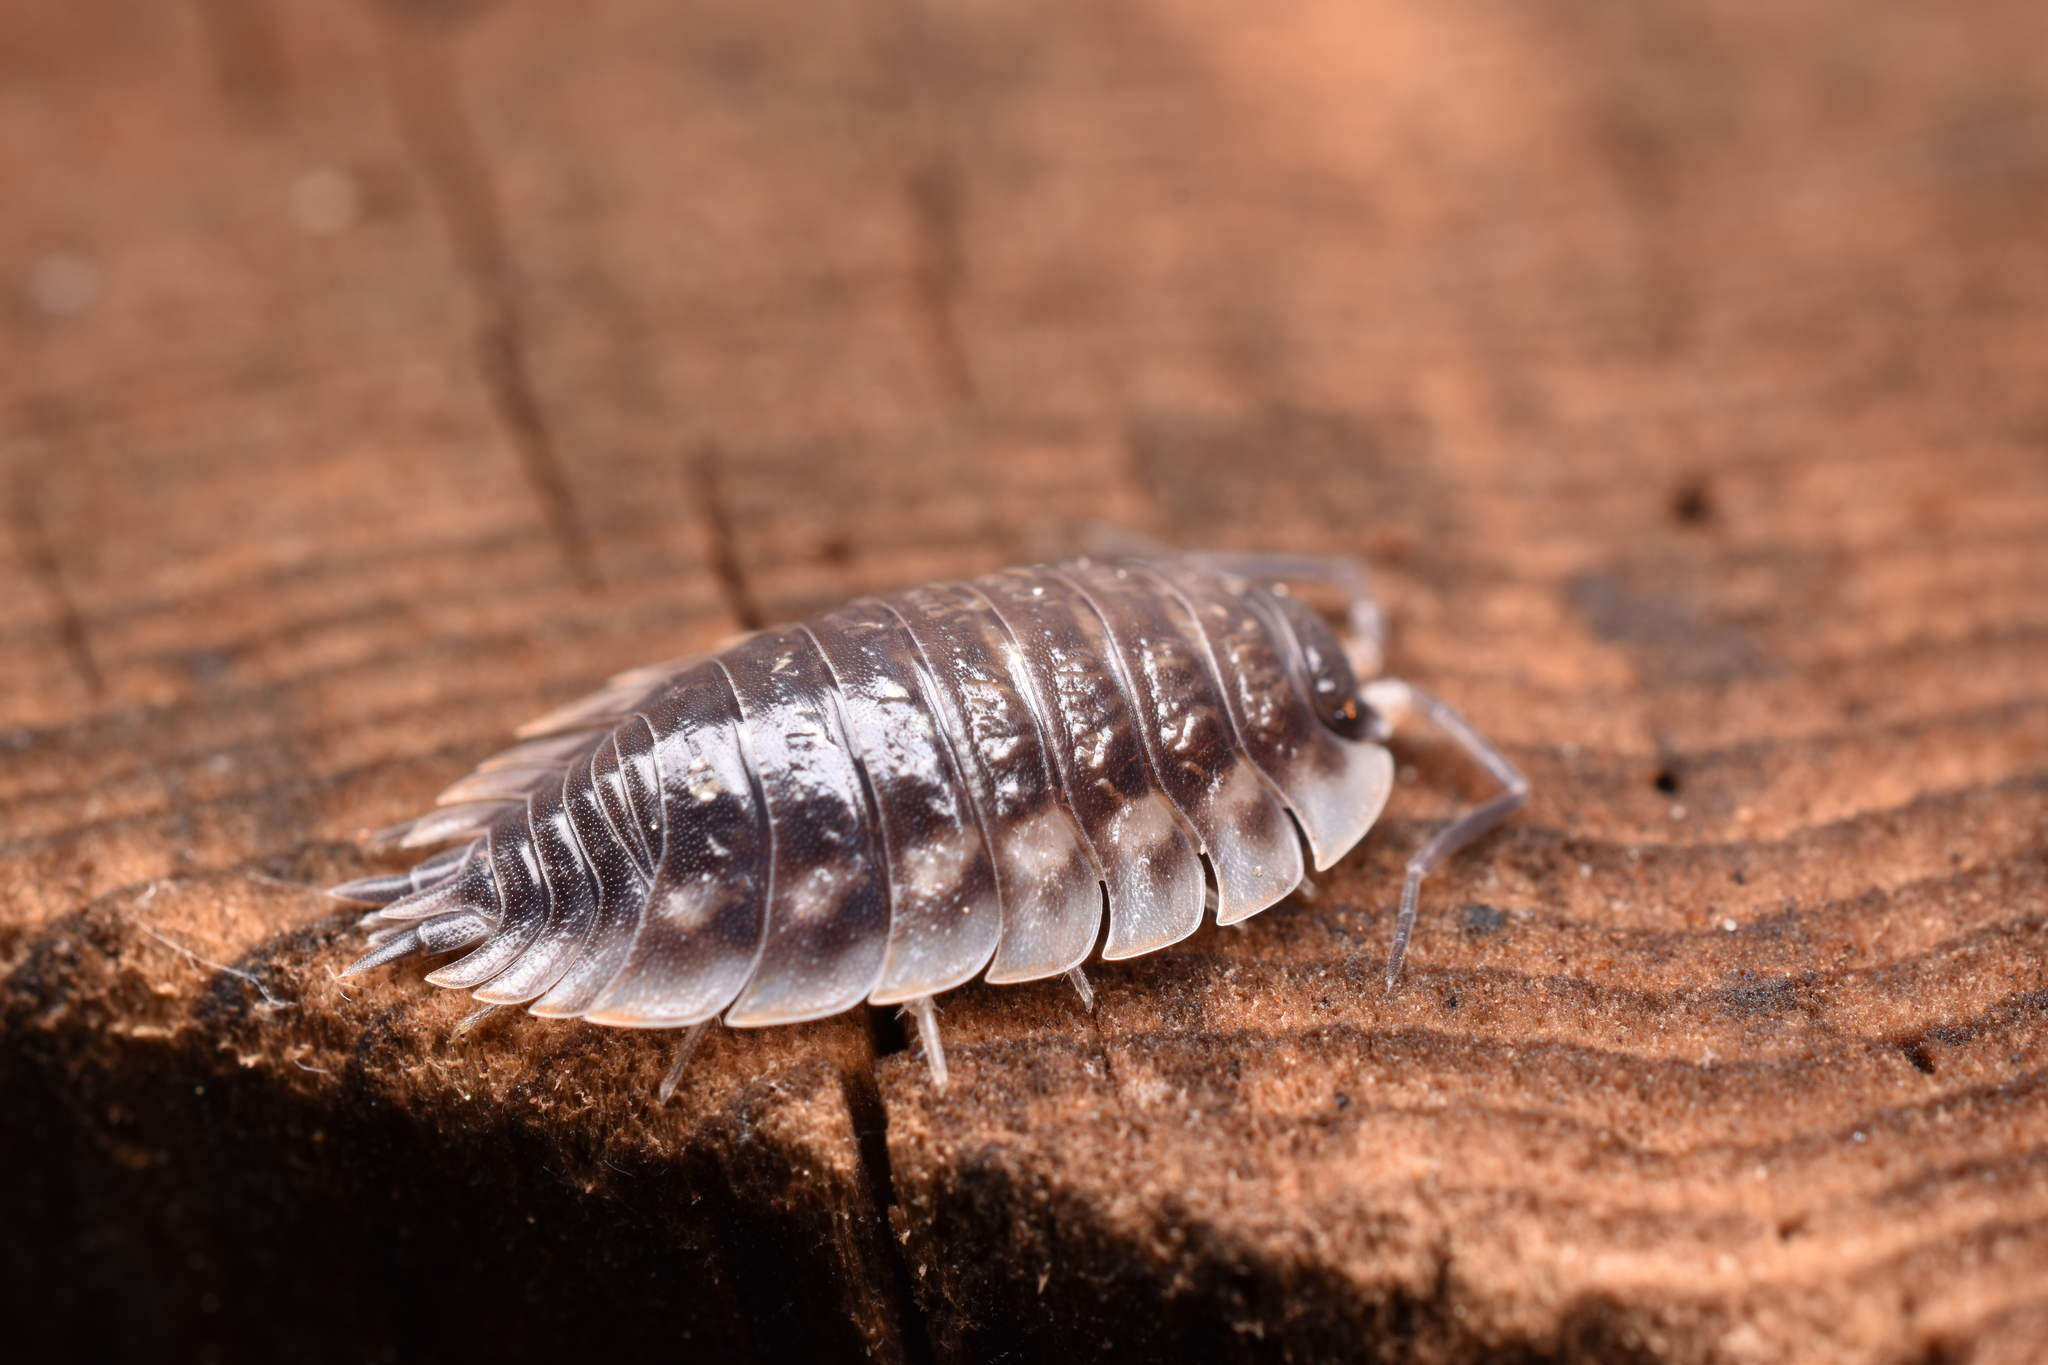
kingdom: Animalia
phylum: Arthropoda
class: Malacostraca
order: Isopoda
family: Oniscidae
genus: Oniscus
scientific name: Oniscus asellus
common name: Common shiny woodlouse
